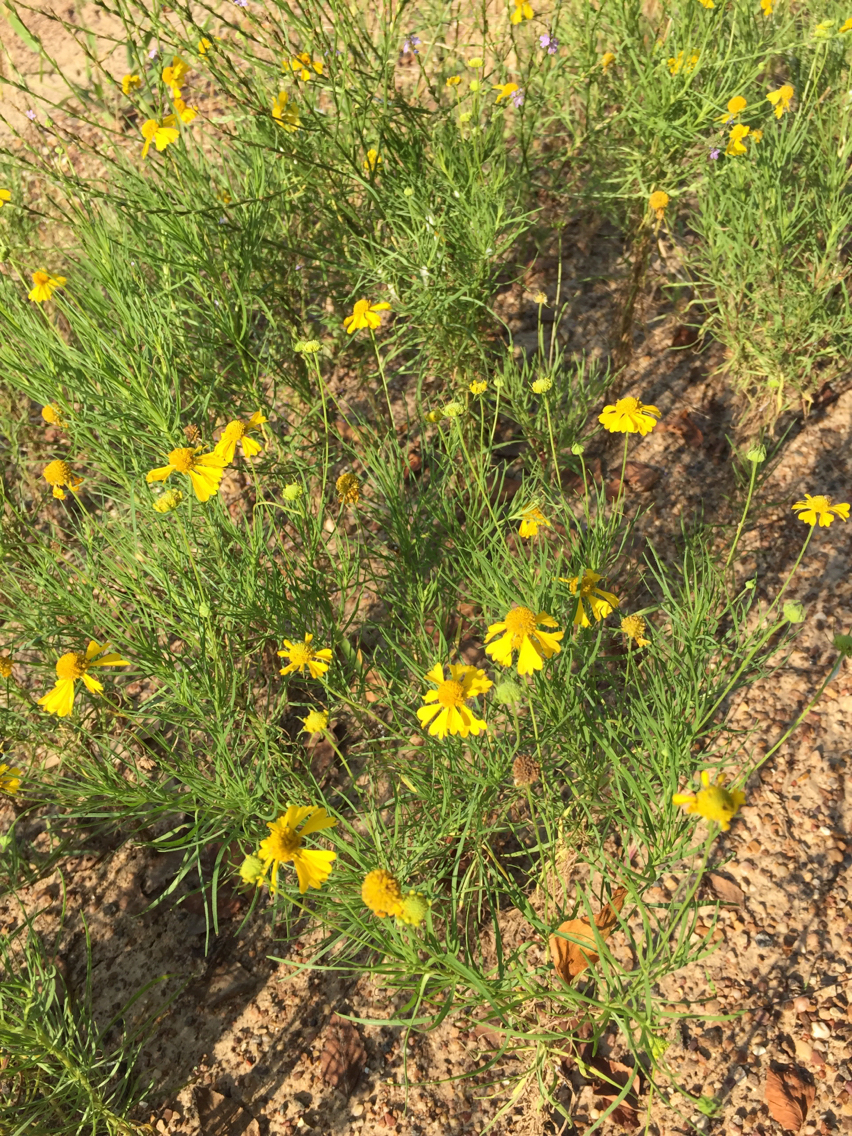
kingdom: Plantae
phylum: Tracheophyta
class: Magnoliopsida
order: Asterales
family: Asteraceae
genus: Helenium
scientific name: Helenium amarum
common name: Bitter sneezeweed
